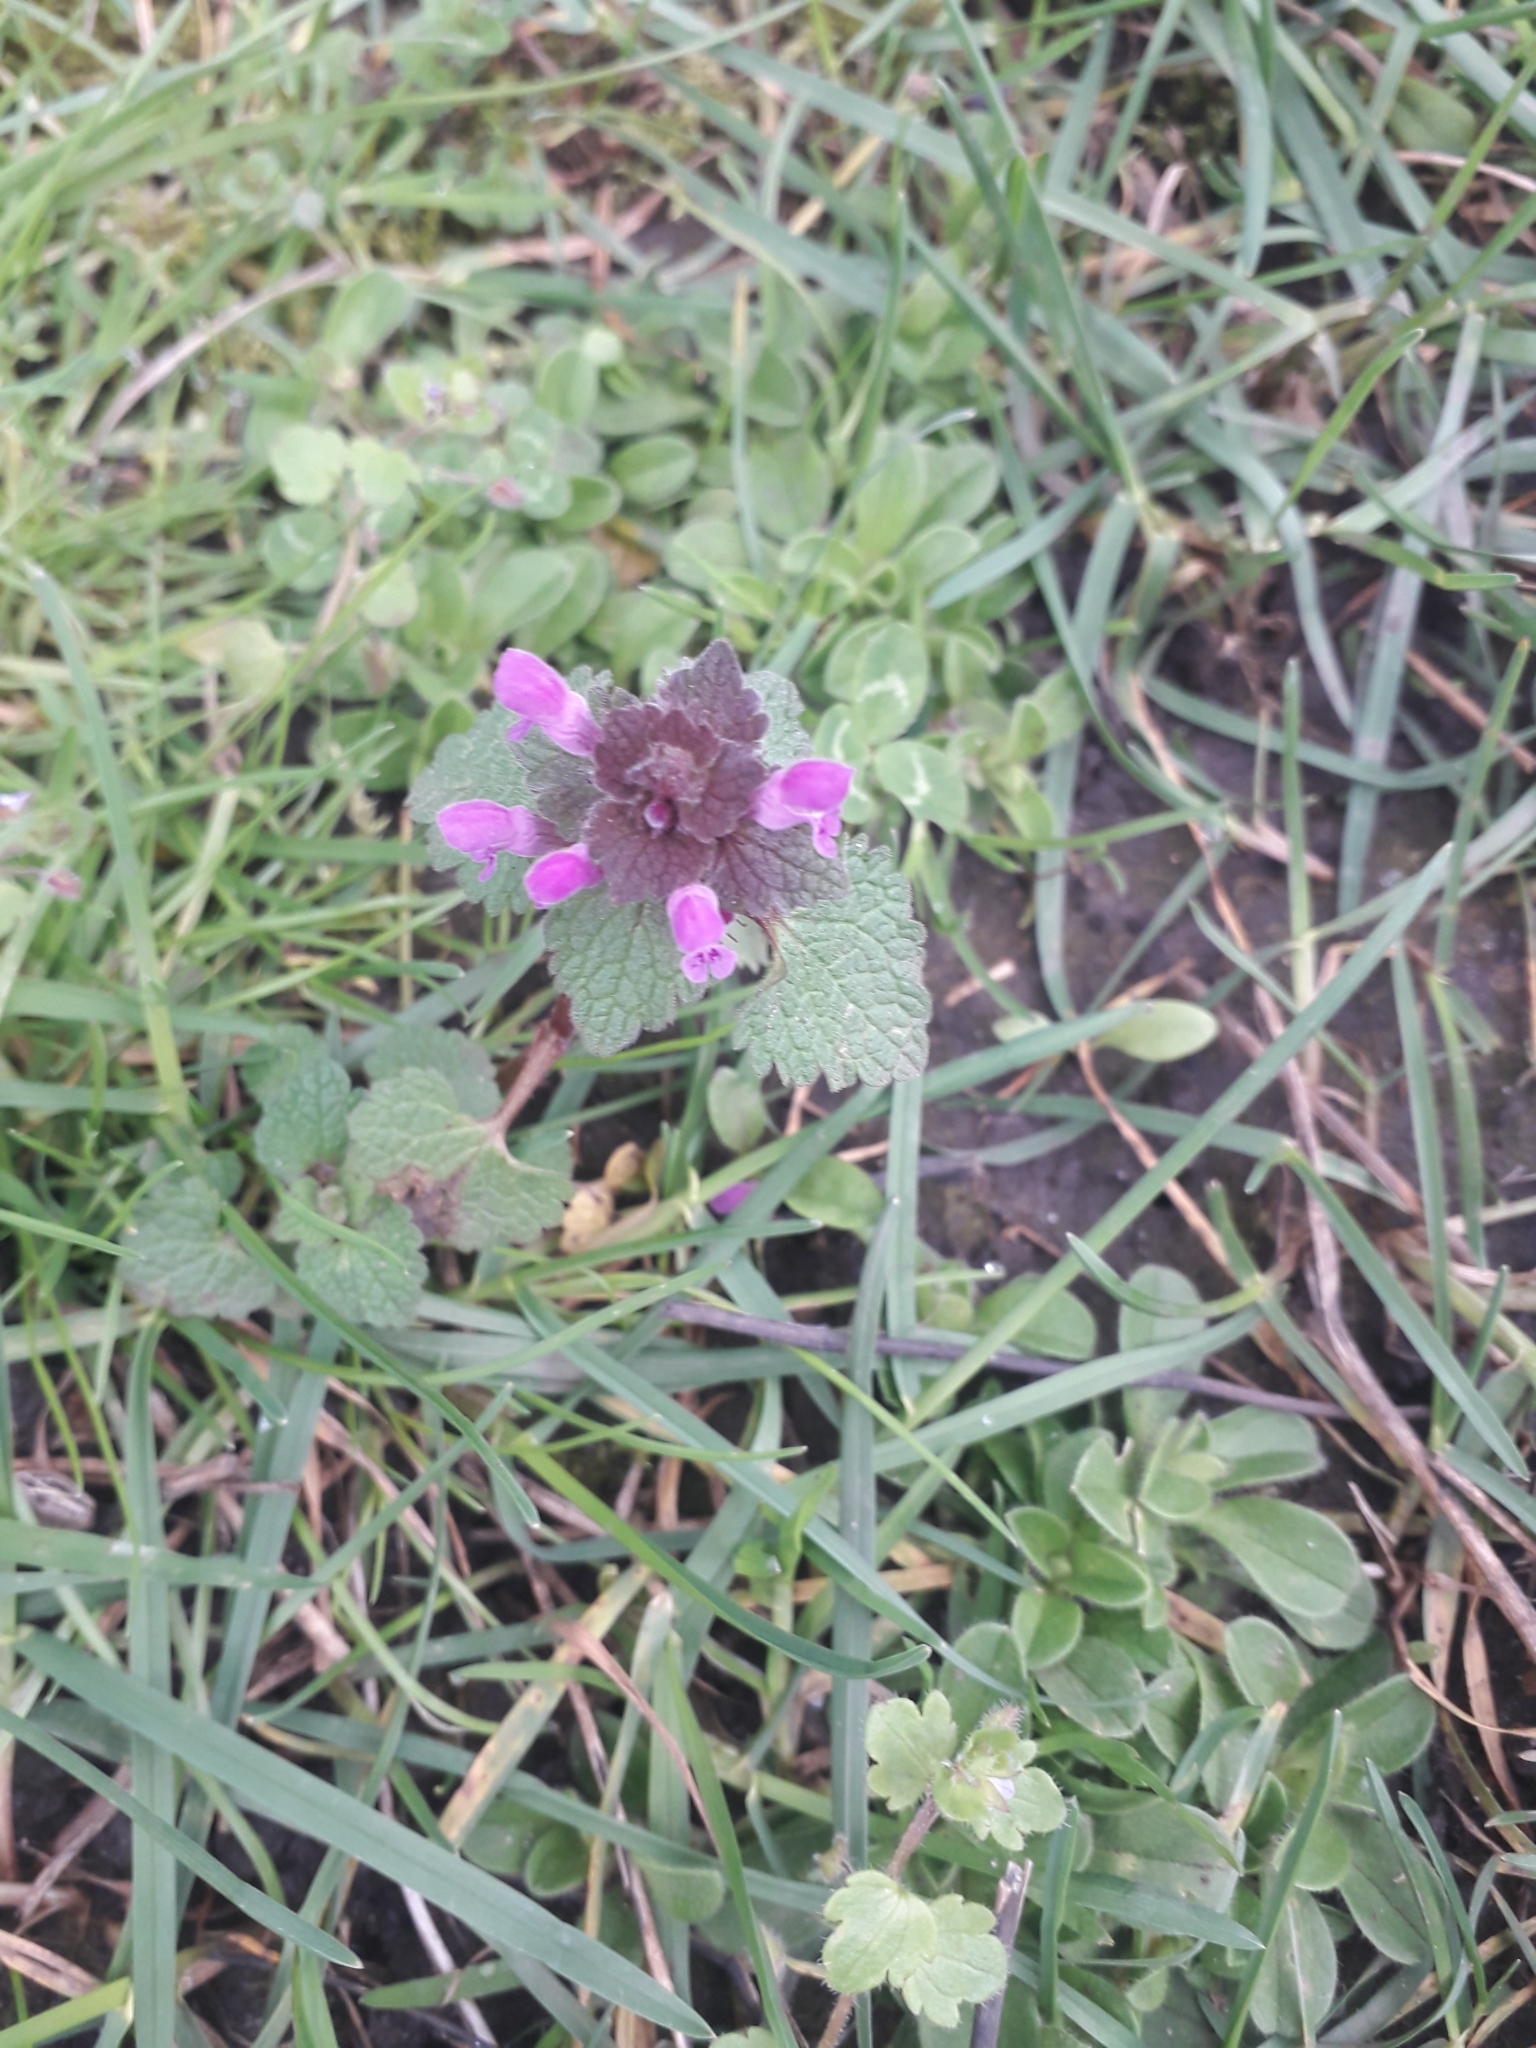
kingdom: Plantae
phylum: Tracheophyta
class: Magnoliopsida
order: Lamiales
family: Lamiaceae
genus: Lamium
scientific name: Lamium purpureum
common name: Red dead-nettle
